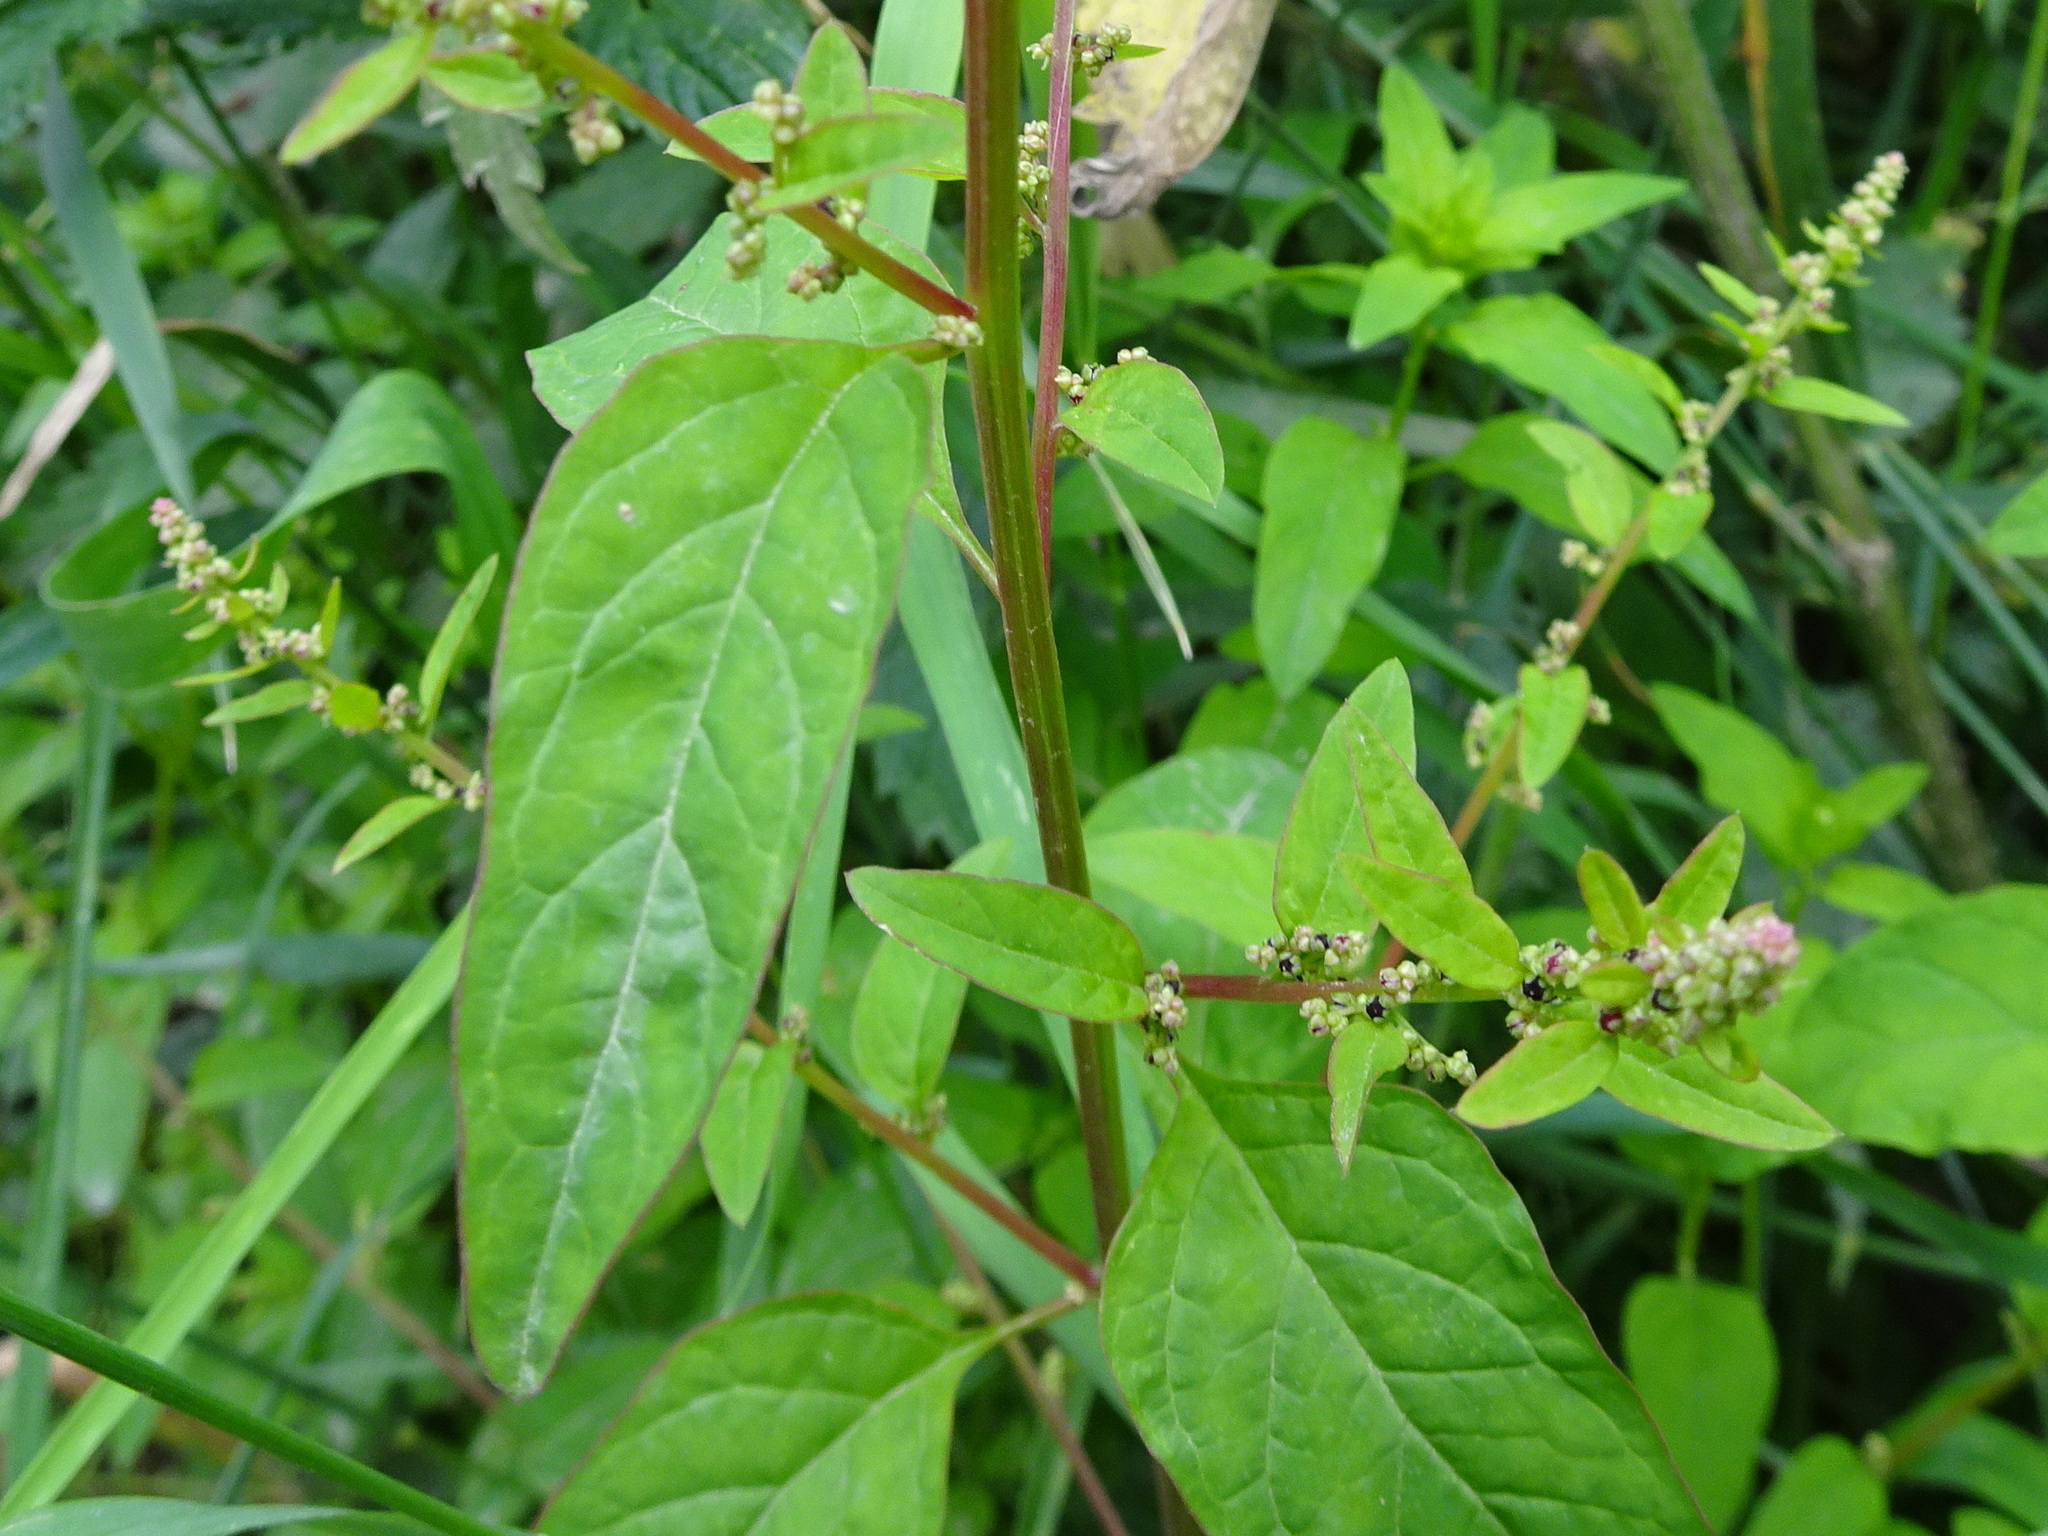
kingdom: Plantae
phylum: Tracheophyta
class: Magnoliopsida
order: Caryophyllales
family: Amaranthaceae
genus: Lipandra
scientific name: Lipandra polysperma
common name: Many-seed goosefoot
